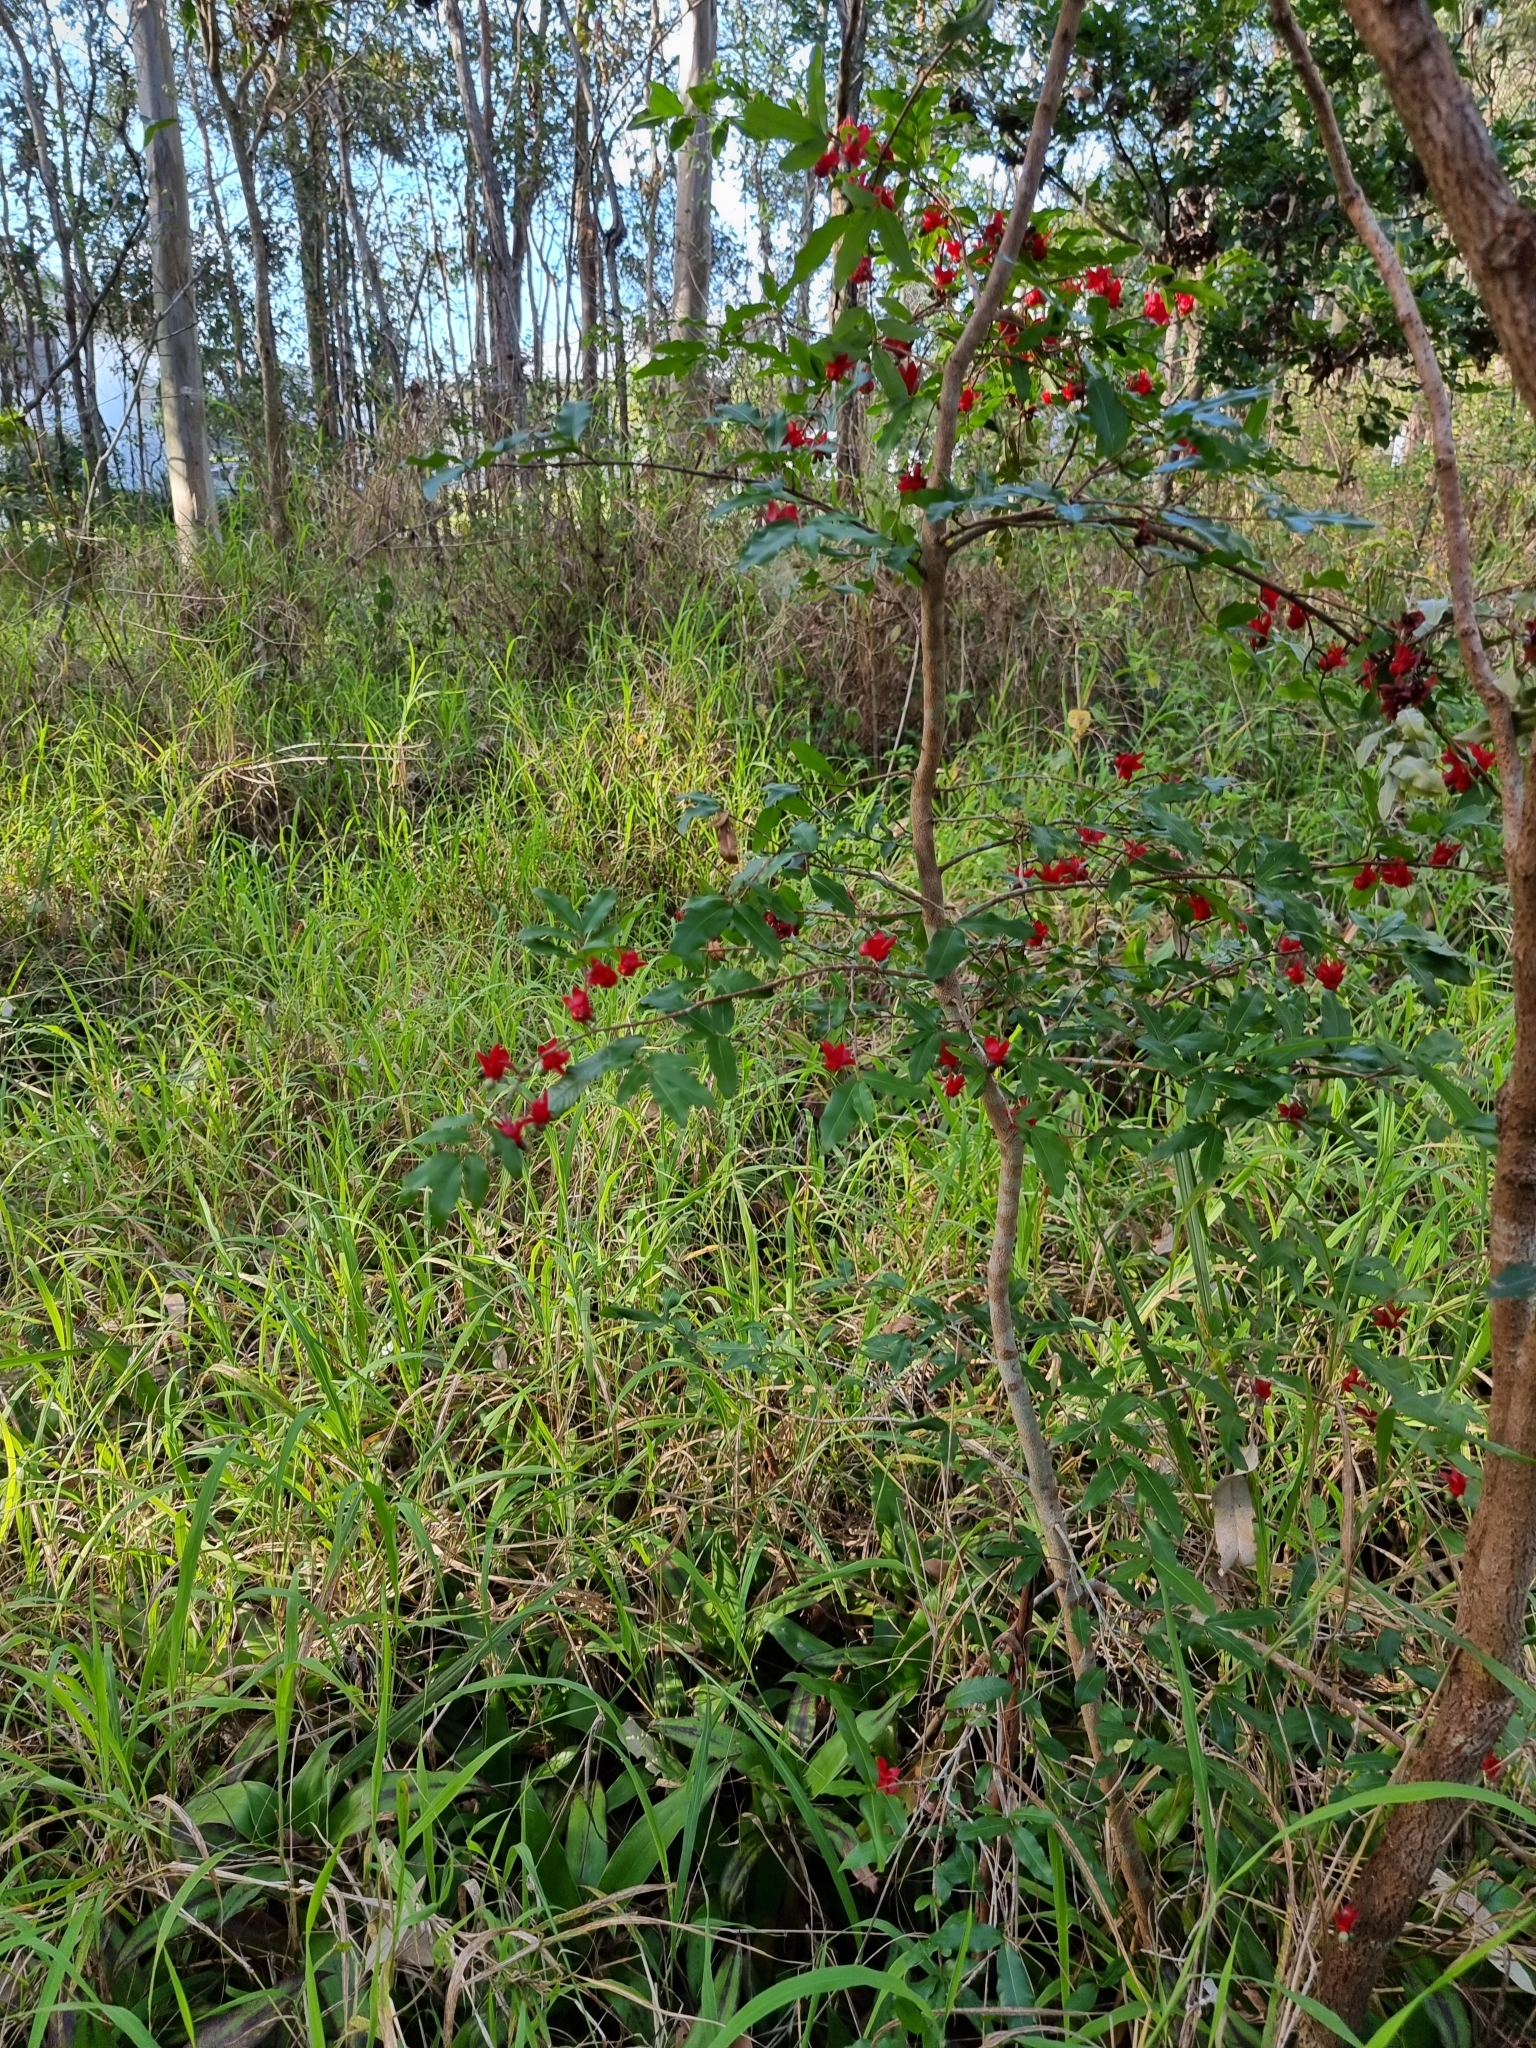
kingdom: Plantae
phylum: Tracheophyta
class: Magnoliopsida
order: Malpighiales
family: Ochnaceae
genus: Ochna
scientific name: Ochna serrulata
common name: Mickey mouse plant
